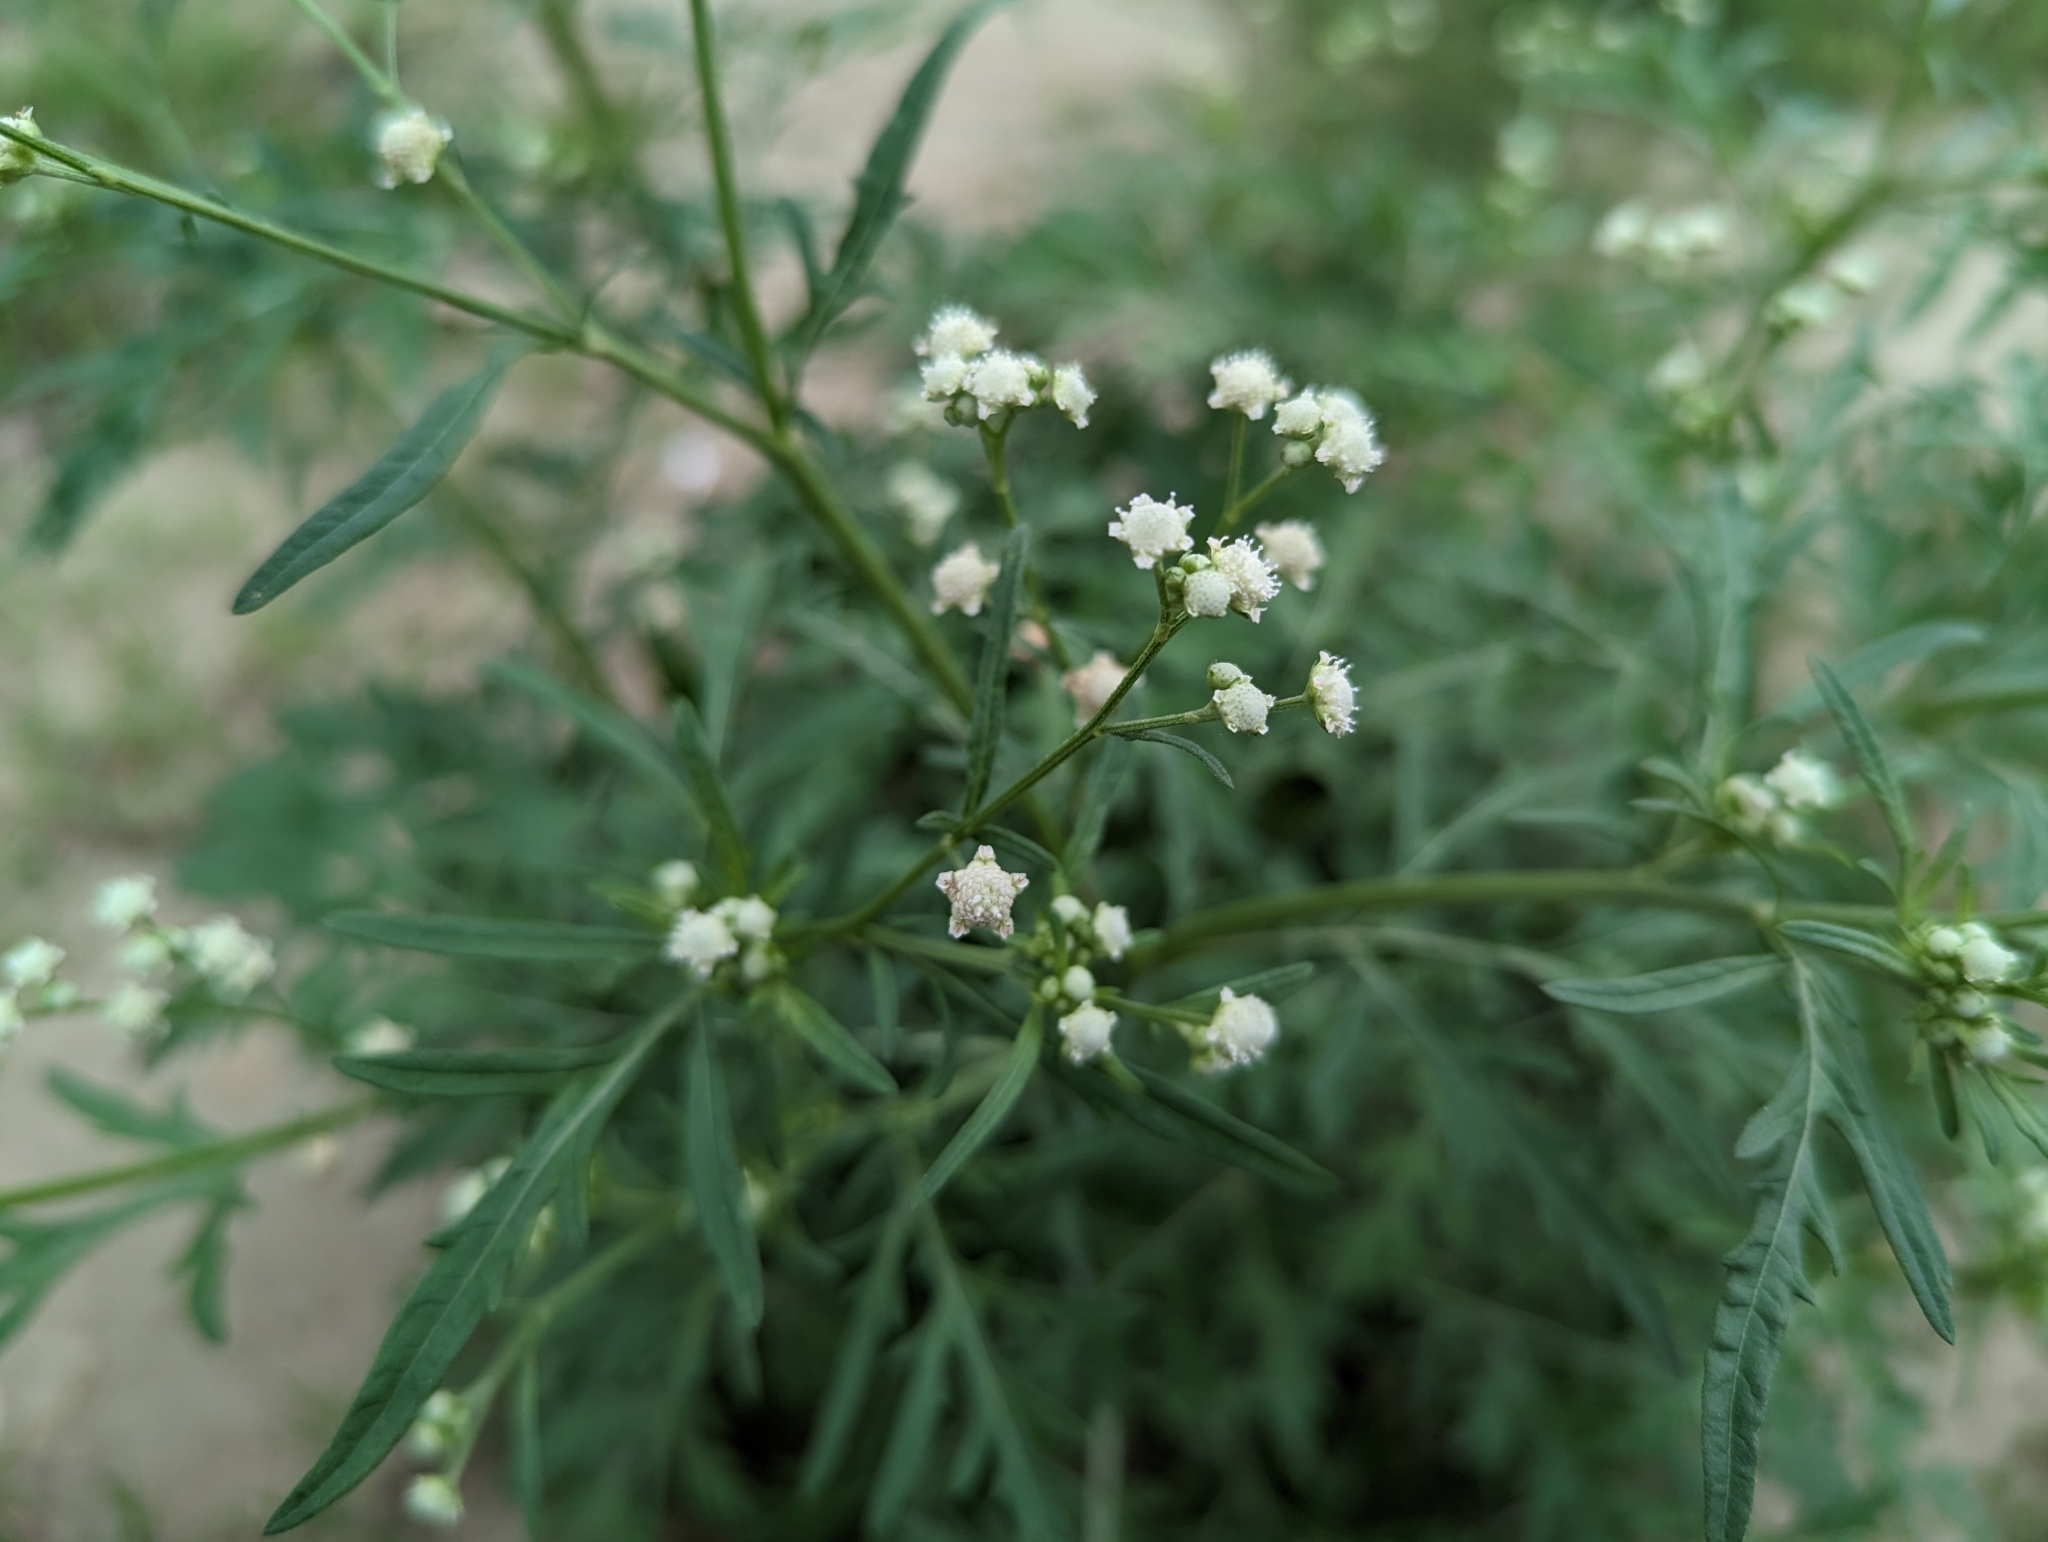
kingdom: Plantae
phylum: Tracheophyta
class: Magnoliopsida
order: Asterales
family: Asteraceae
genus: Parthenium
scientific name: Parthenium hysterophorus
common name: Santa maria feverfew
